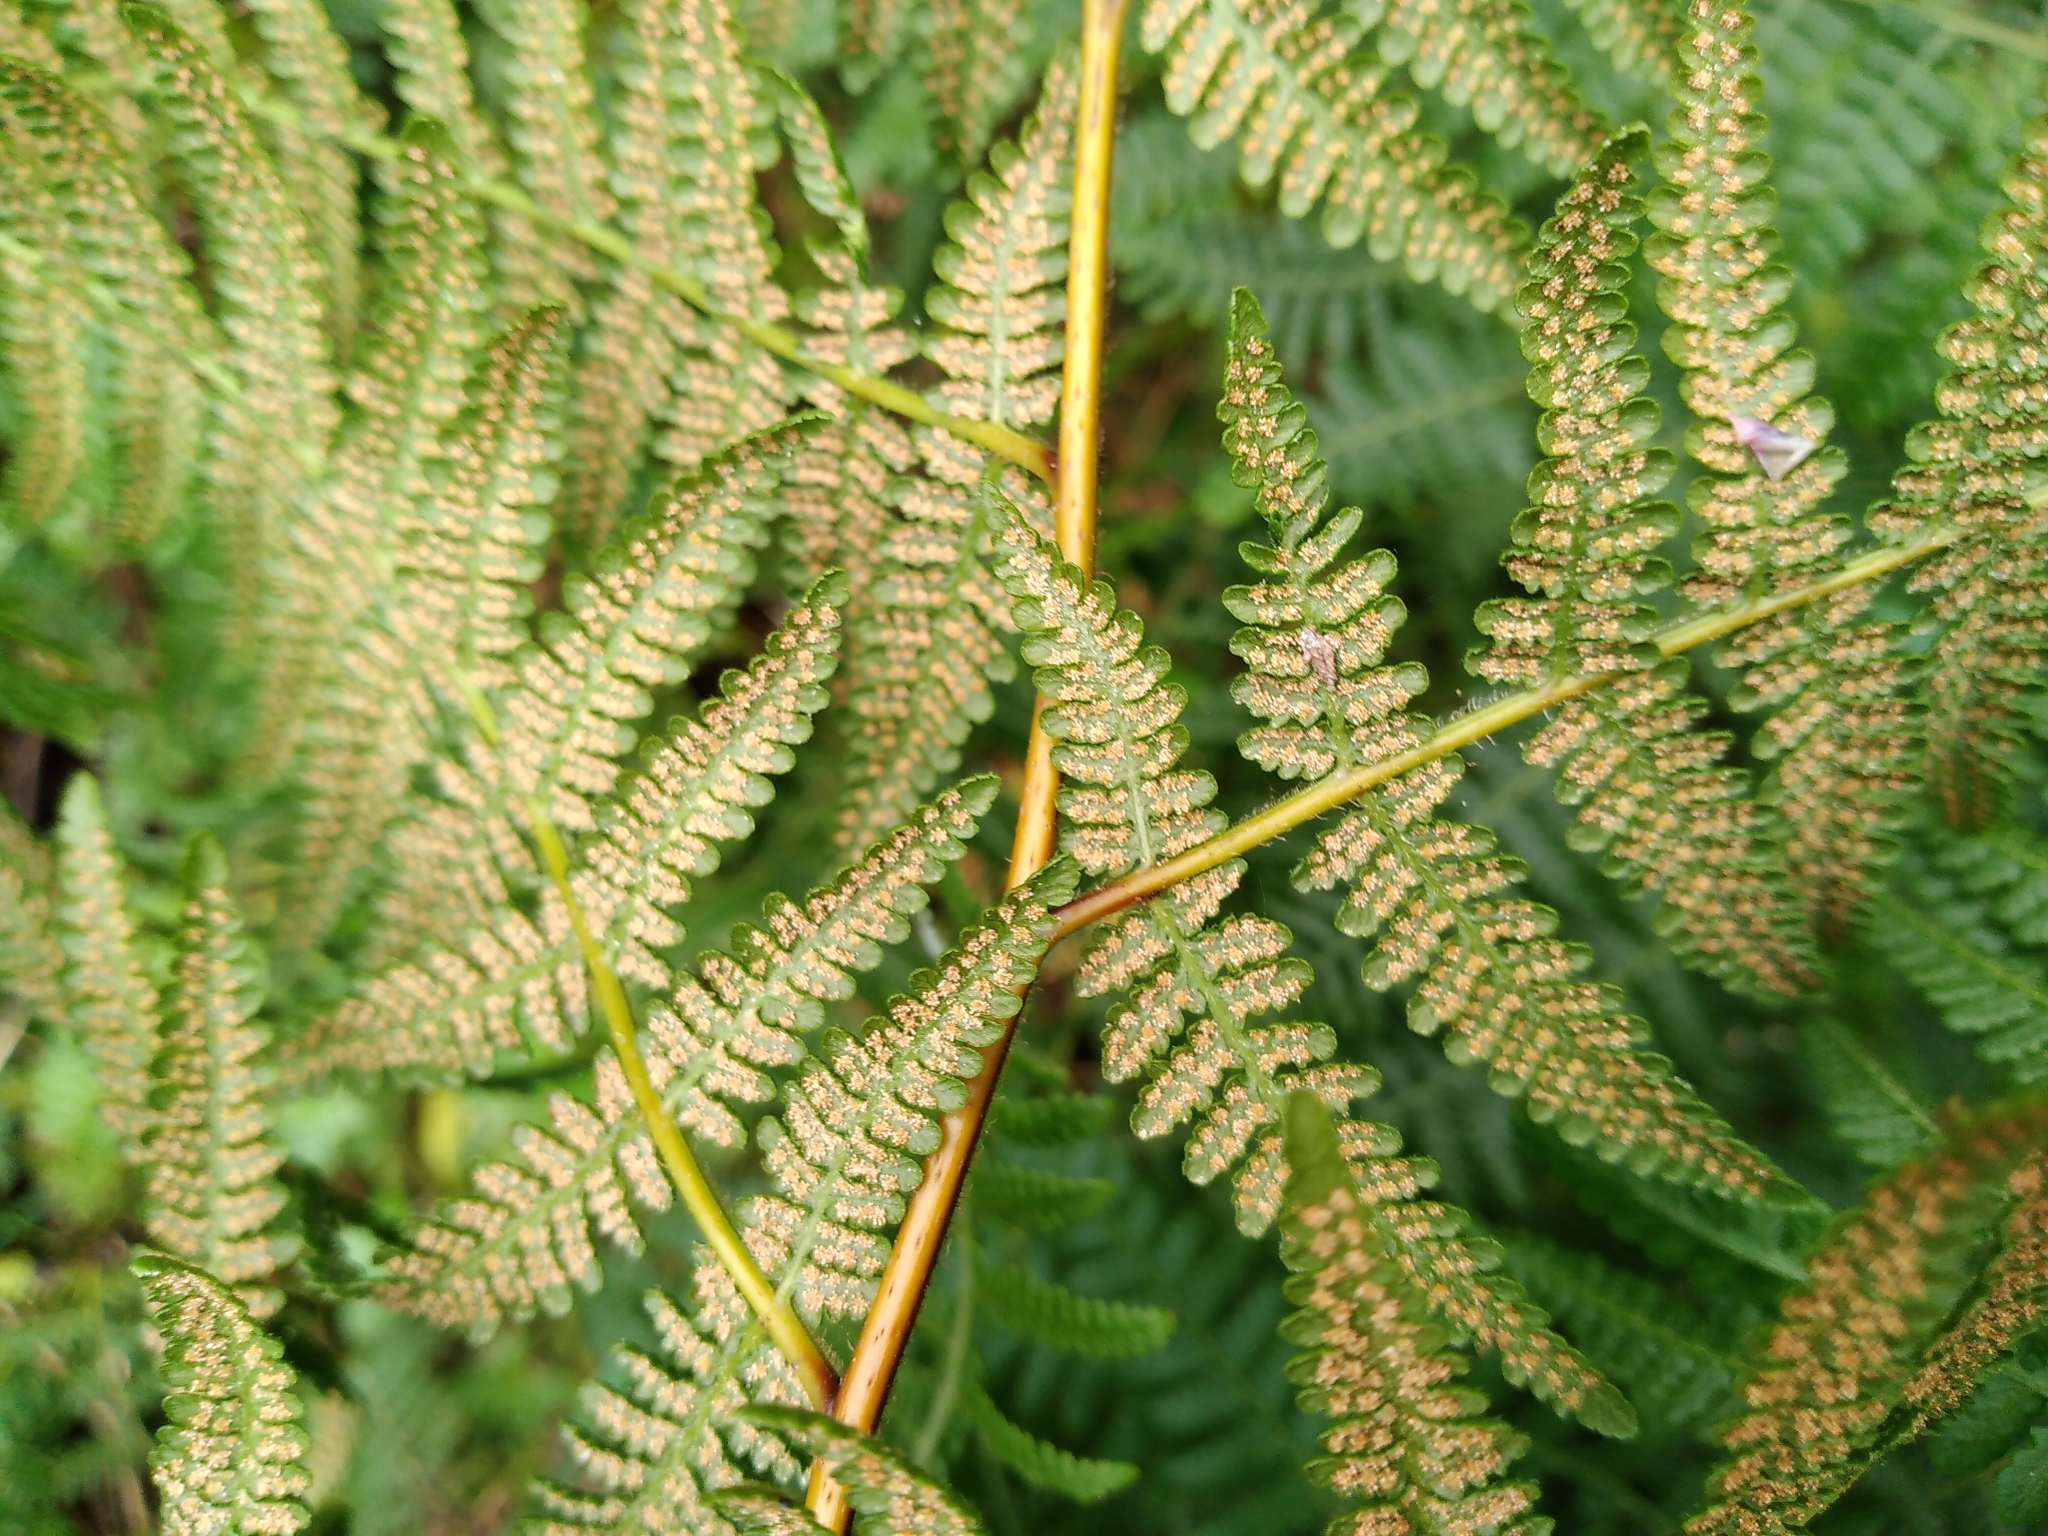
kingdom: Plantae
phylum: Tracheophyta
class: Polypodiopsida
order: Polypodiales
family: Dennstaedtiaceae
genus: Hypolepis
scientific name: Hypolepis ambigua
